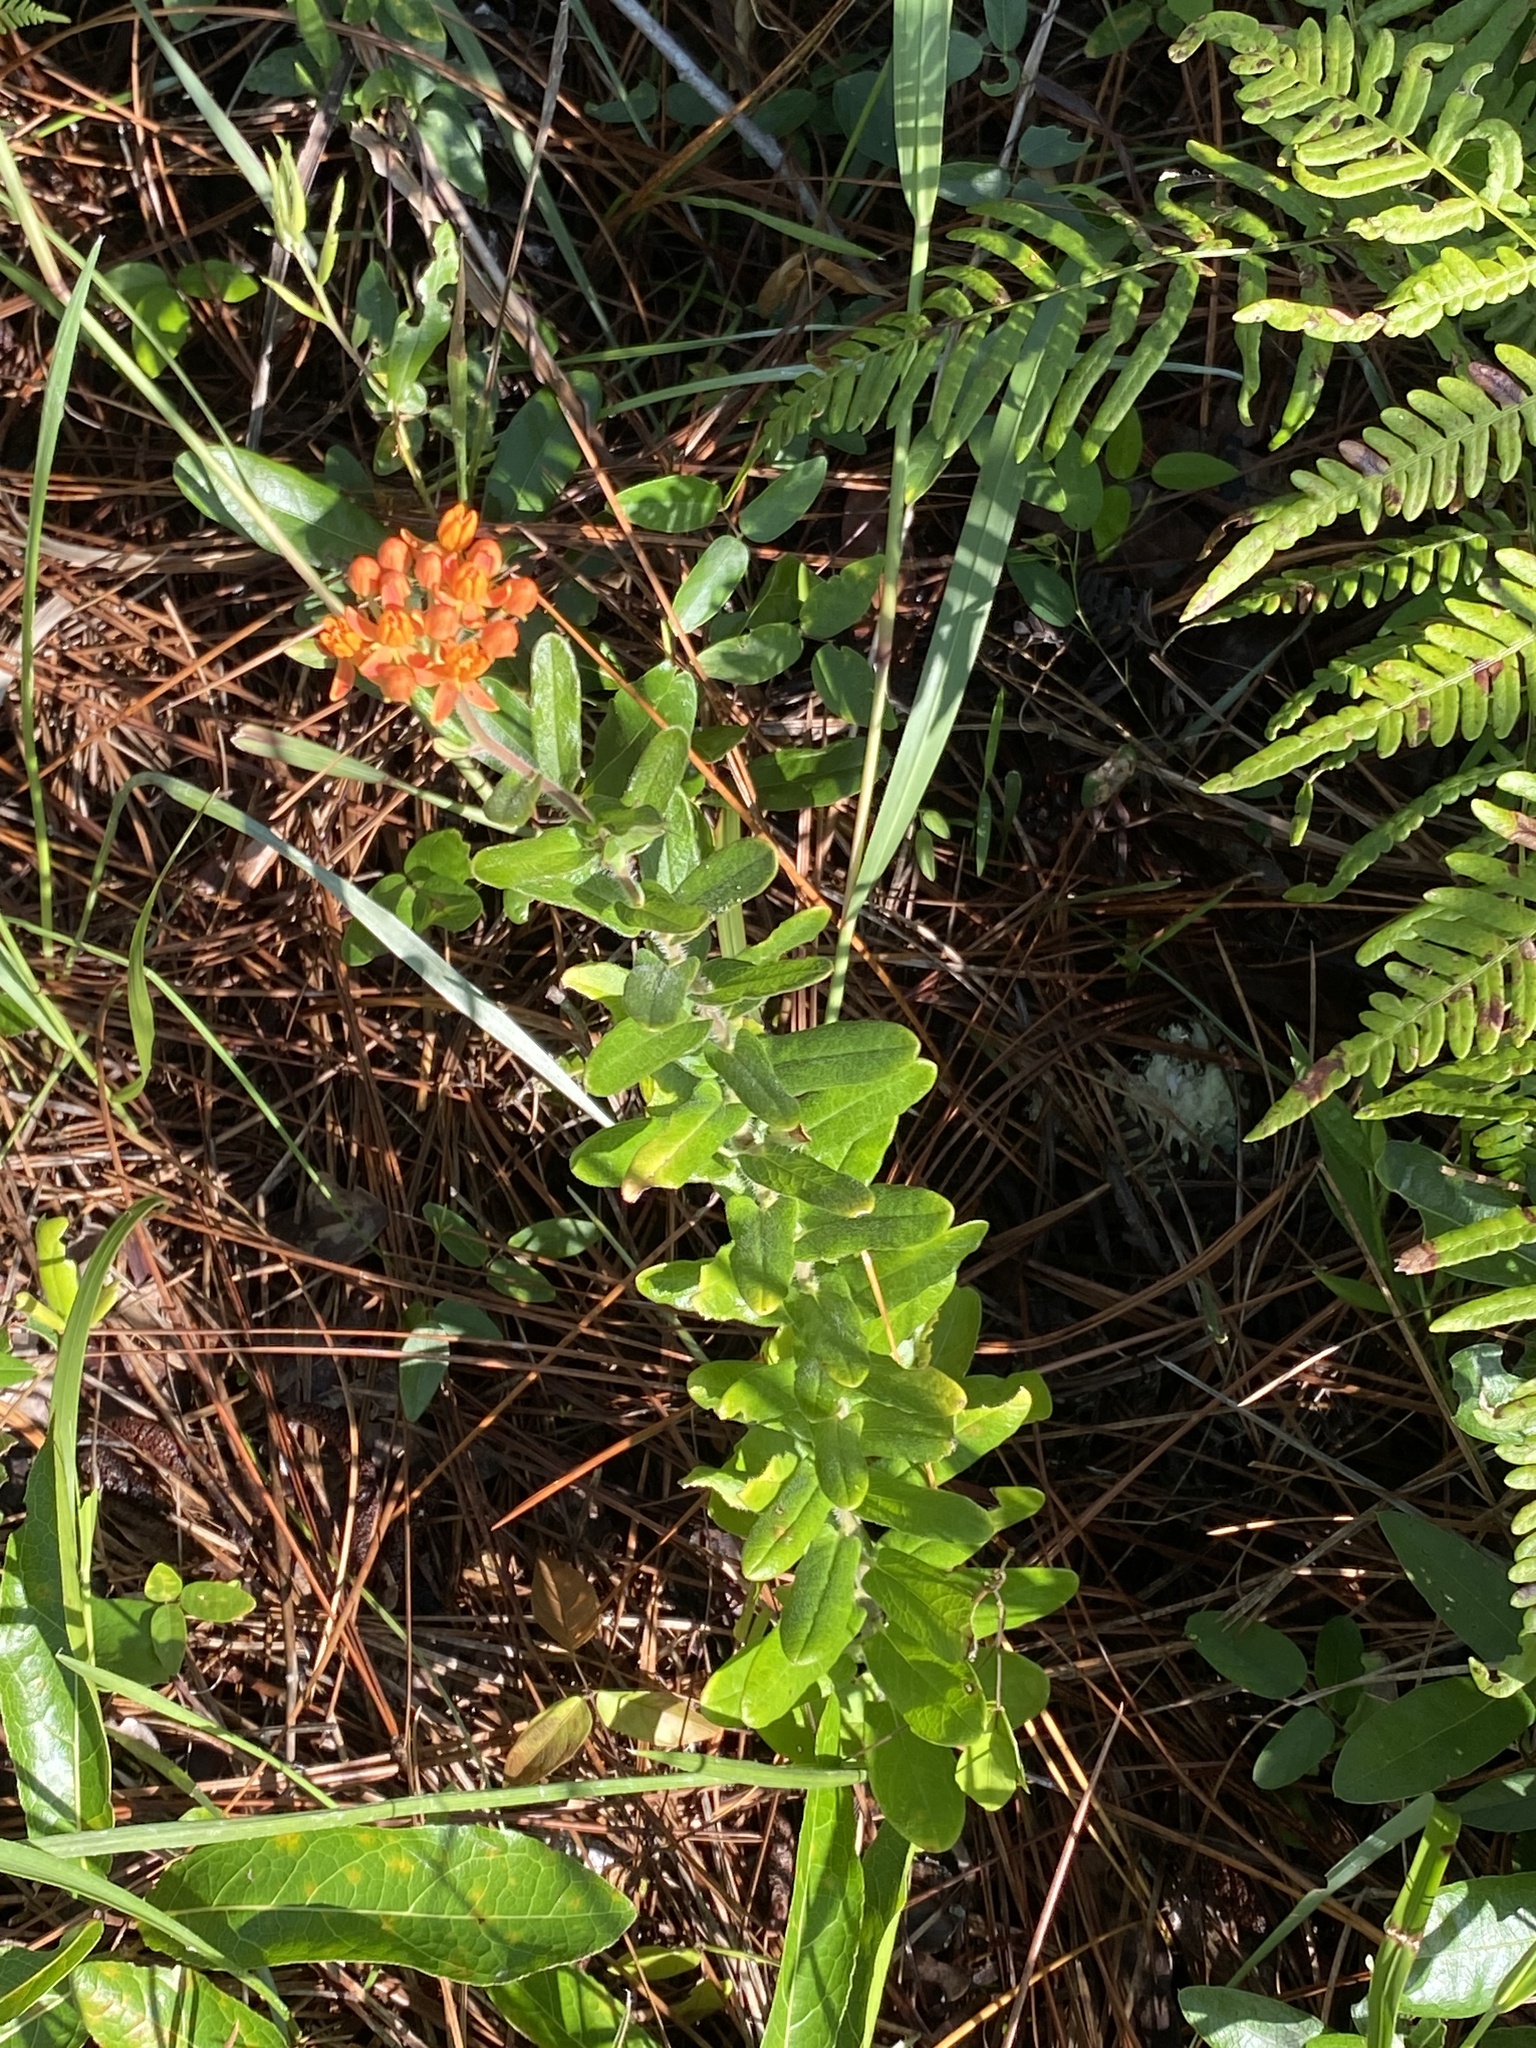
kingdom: Plantae
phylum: Tracheophyta
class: Magnoliopsida
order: Gentianales
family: Apocynaceae
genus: Asclepias
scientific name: Asclepias tuberosa
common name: Butterfly milkweed
